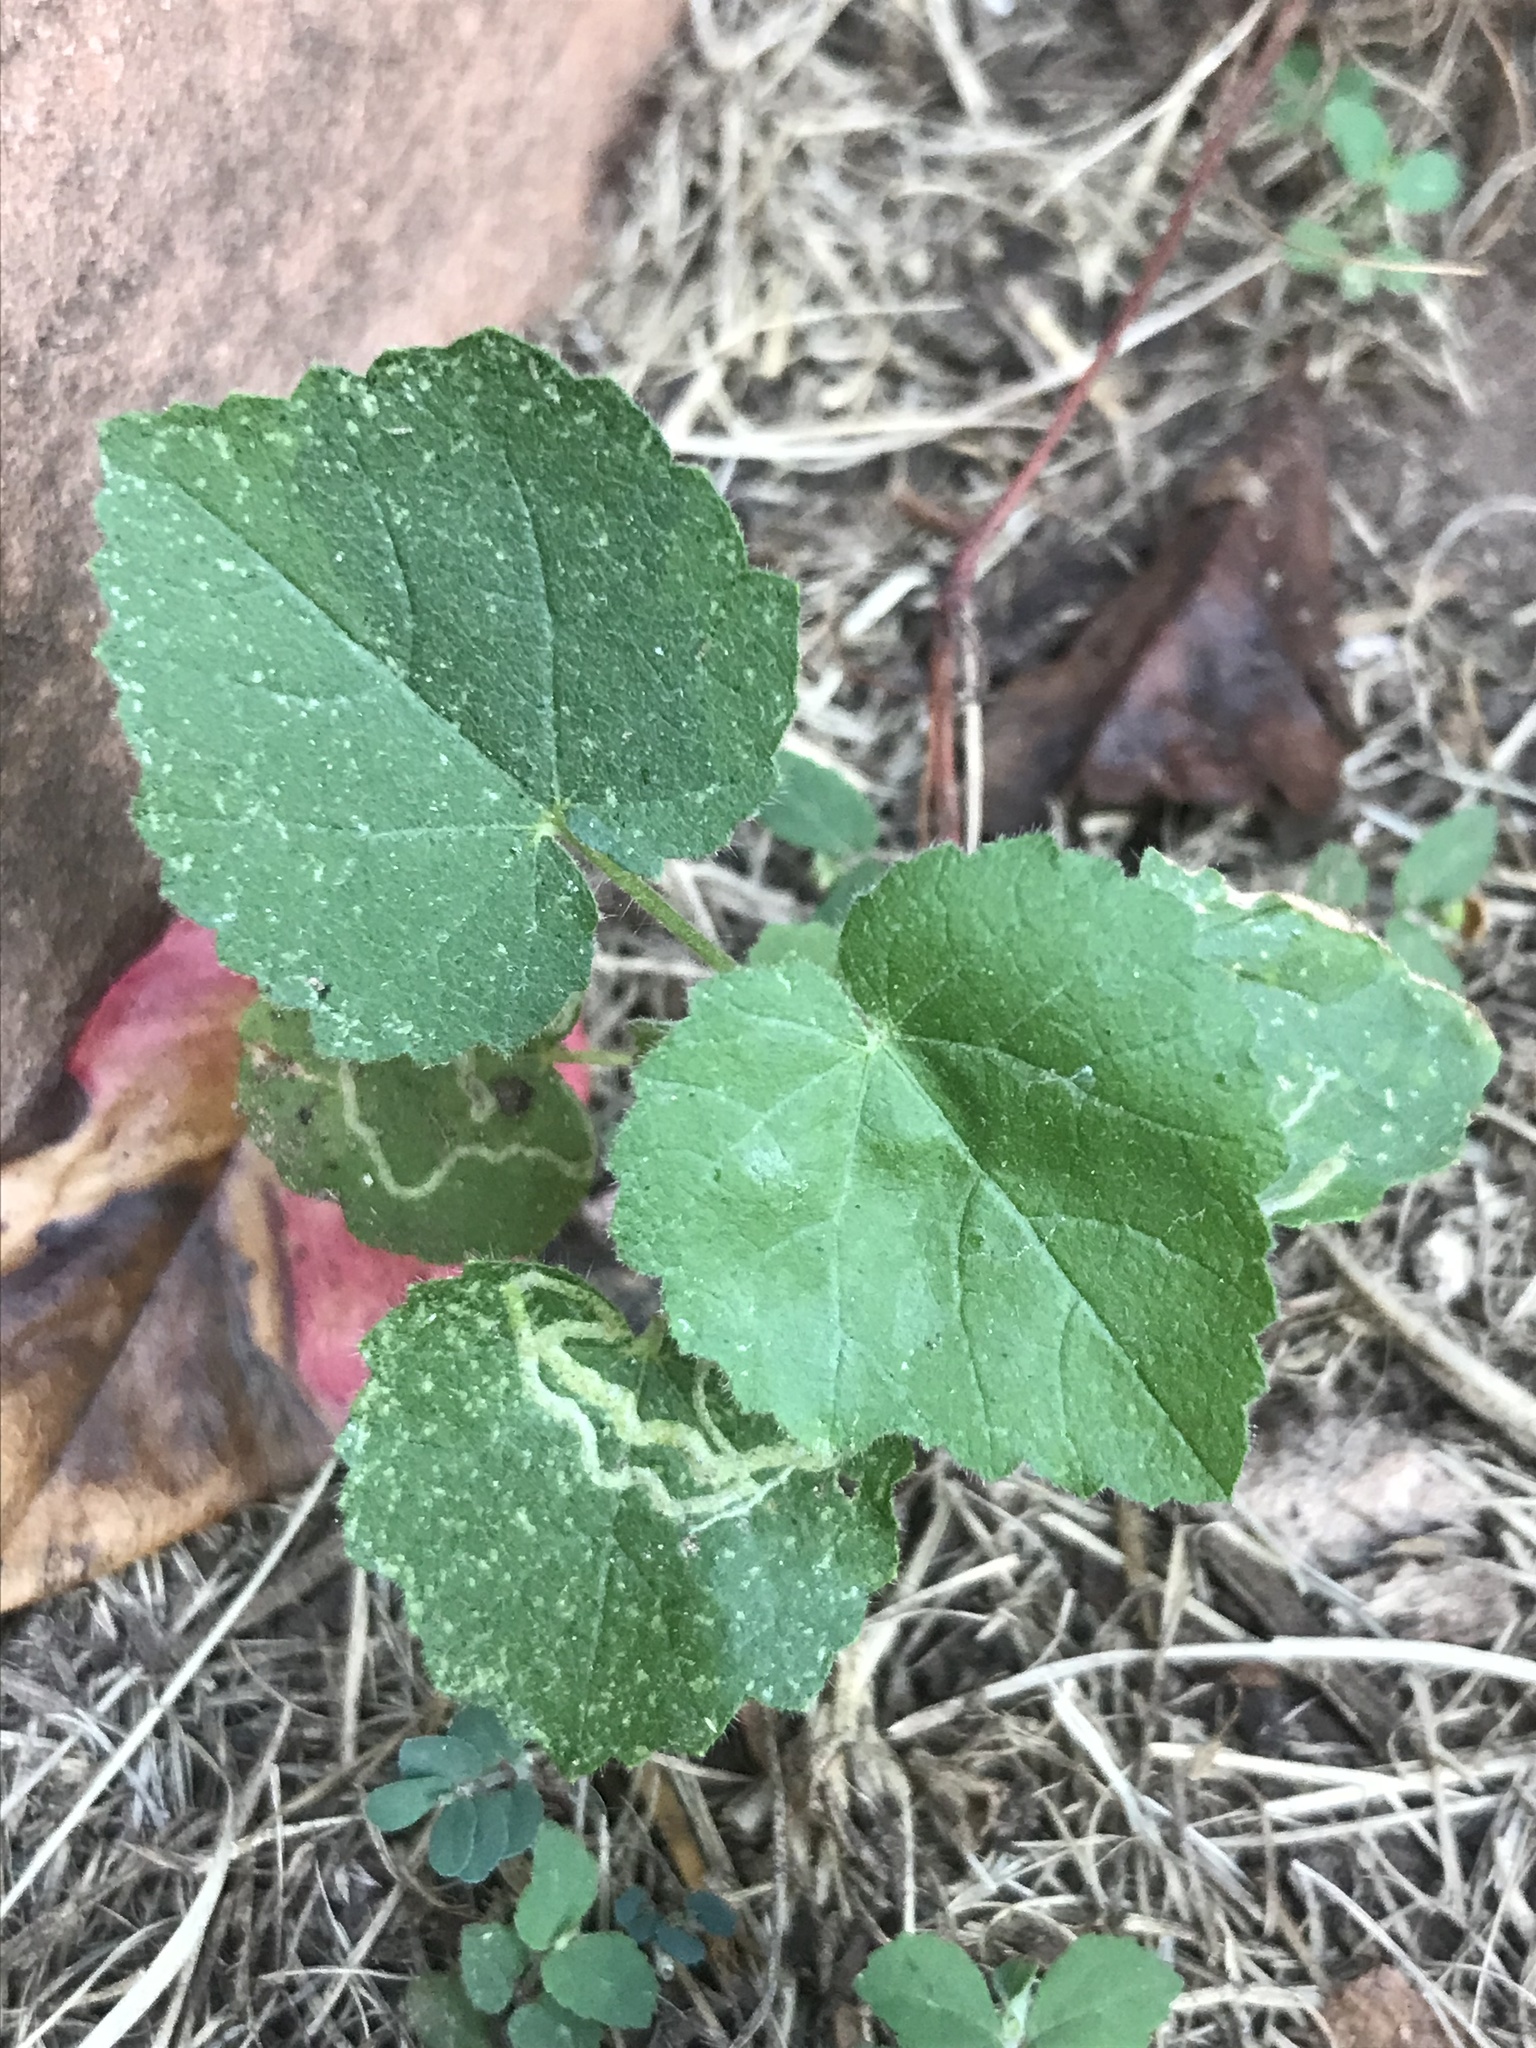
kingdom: Animalia
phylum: Arthropoda
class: Insecta
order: Diptera
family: Agromyzidae
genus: Calycomyza
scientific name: Calycomyza malvae
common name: Mallow leaf miner
